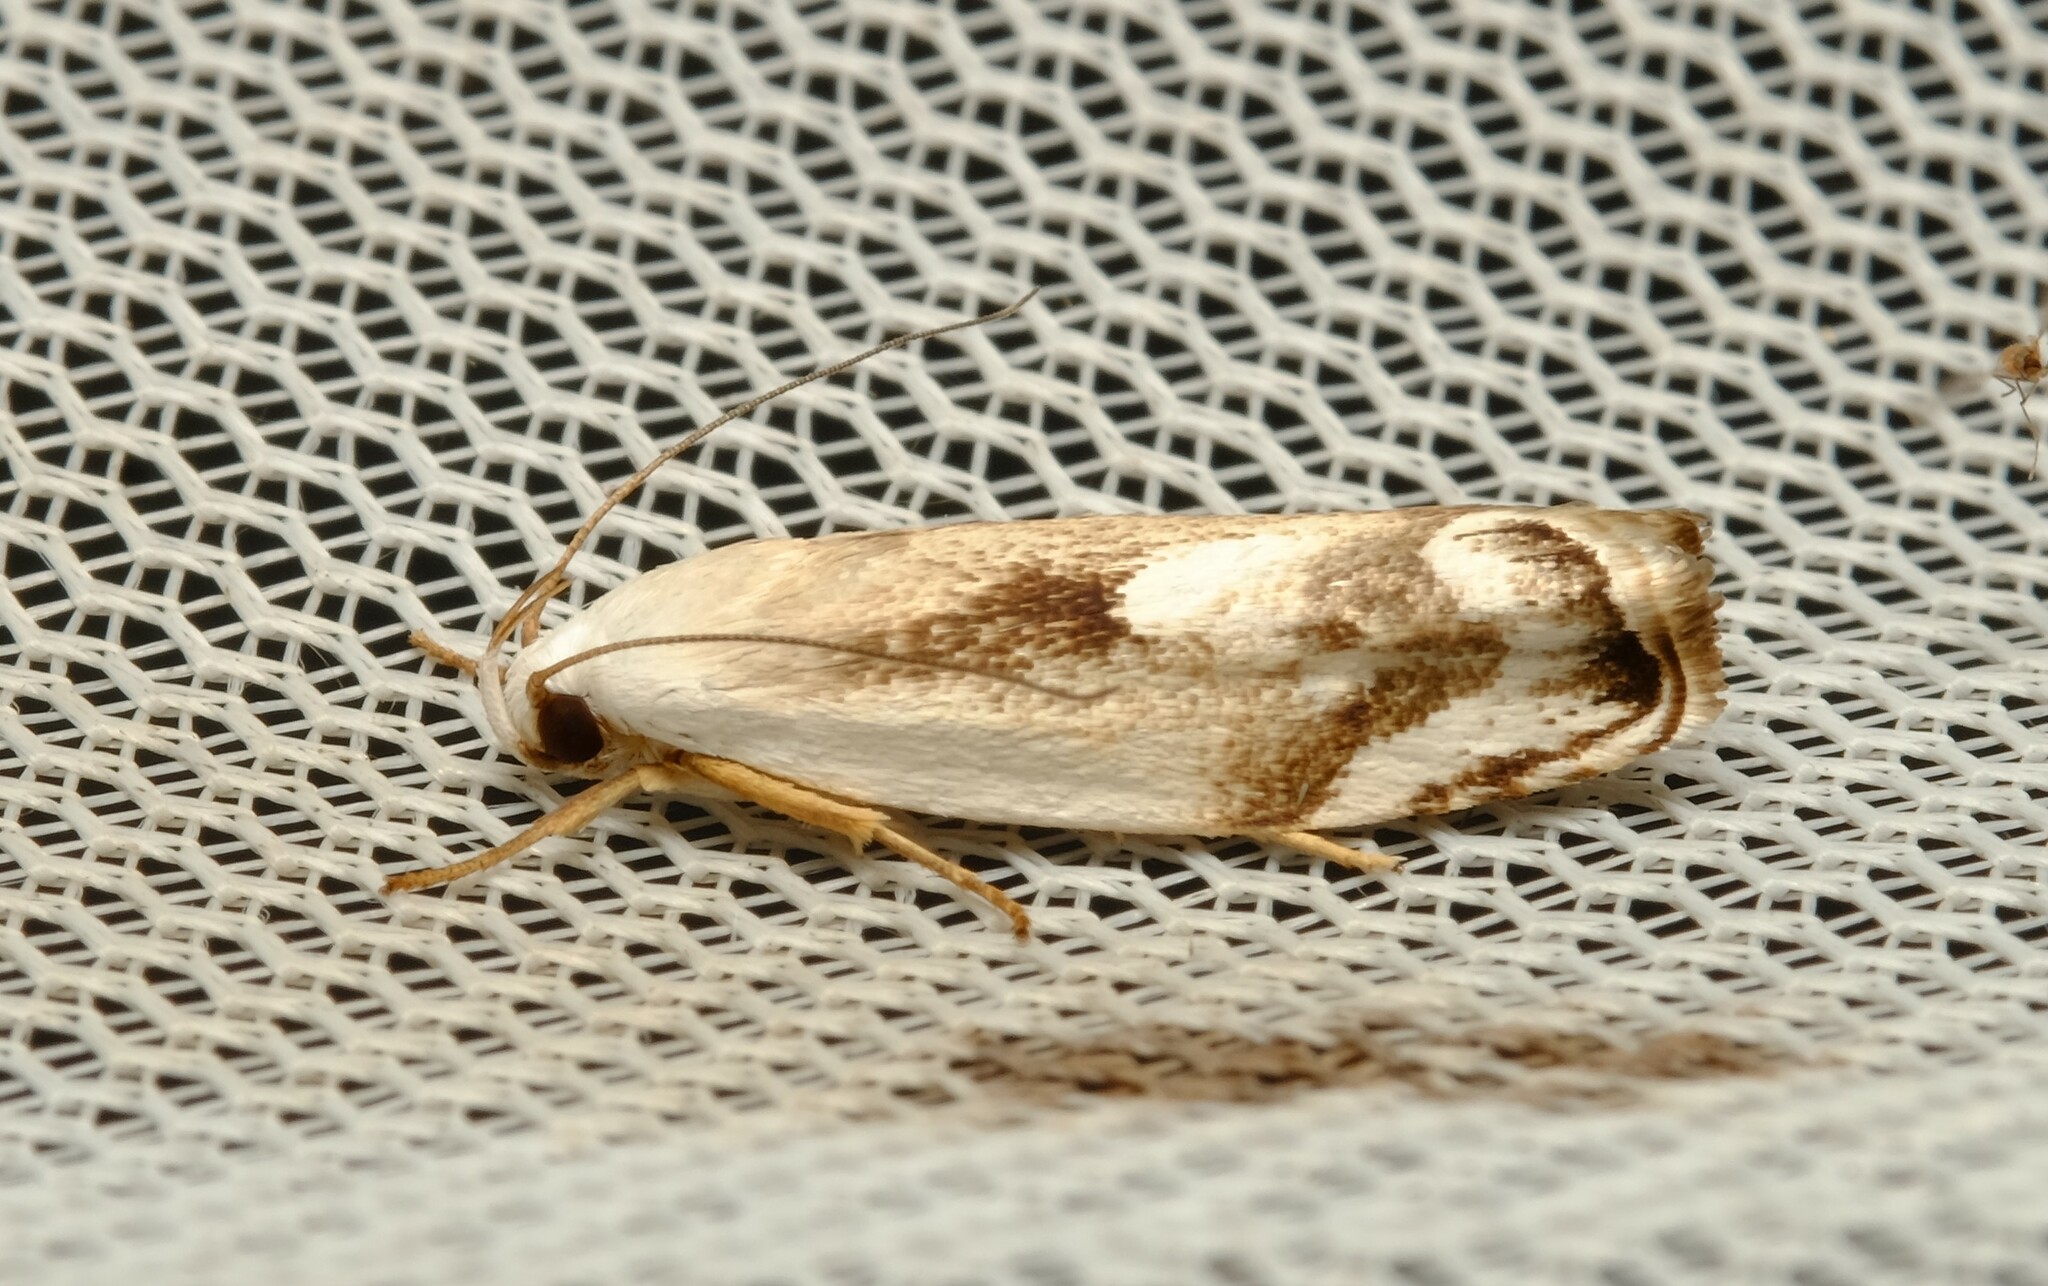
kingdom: Animalia
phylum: Arthropoda
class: Insecta
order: Lepidoptera
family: Xyloryctidae
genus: Plectophila
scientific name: Plectophila discalis
